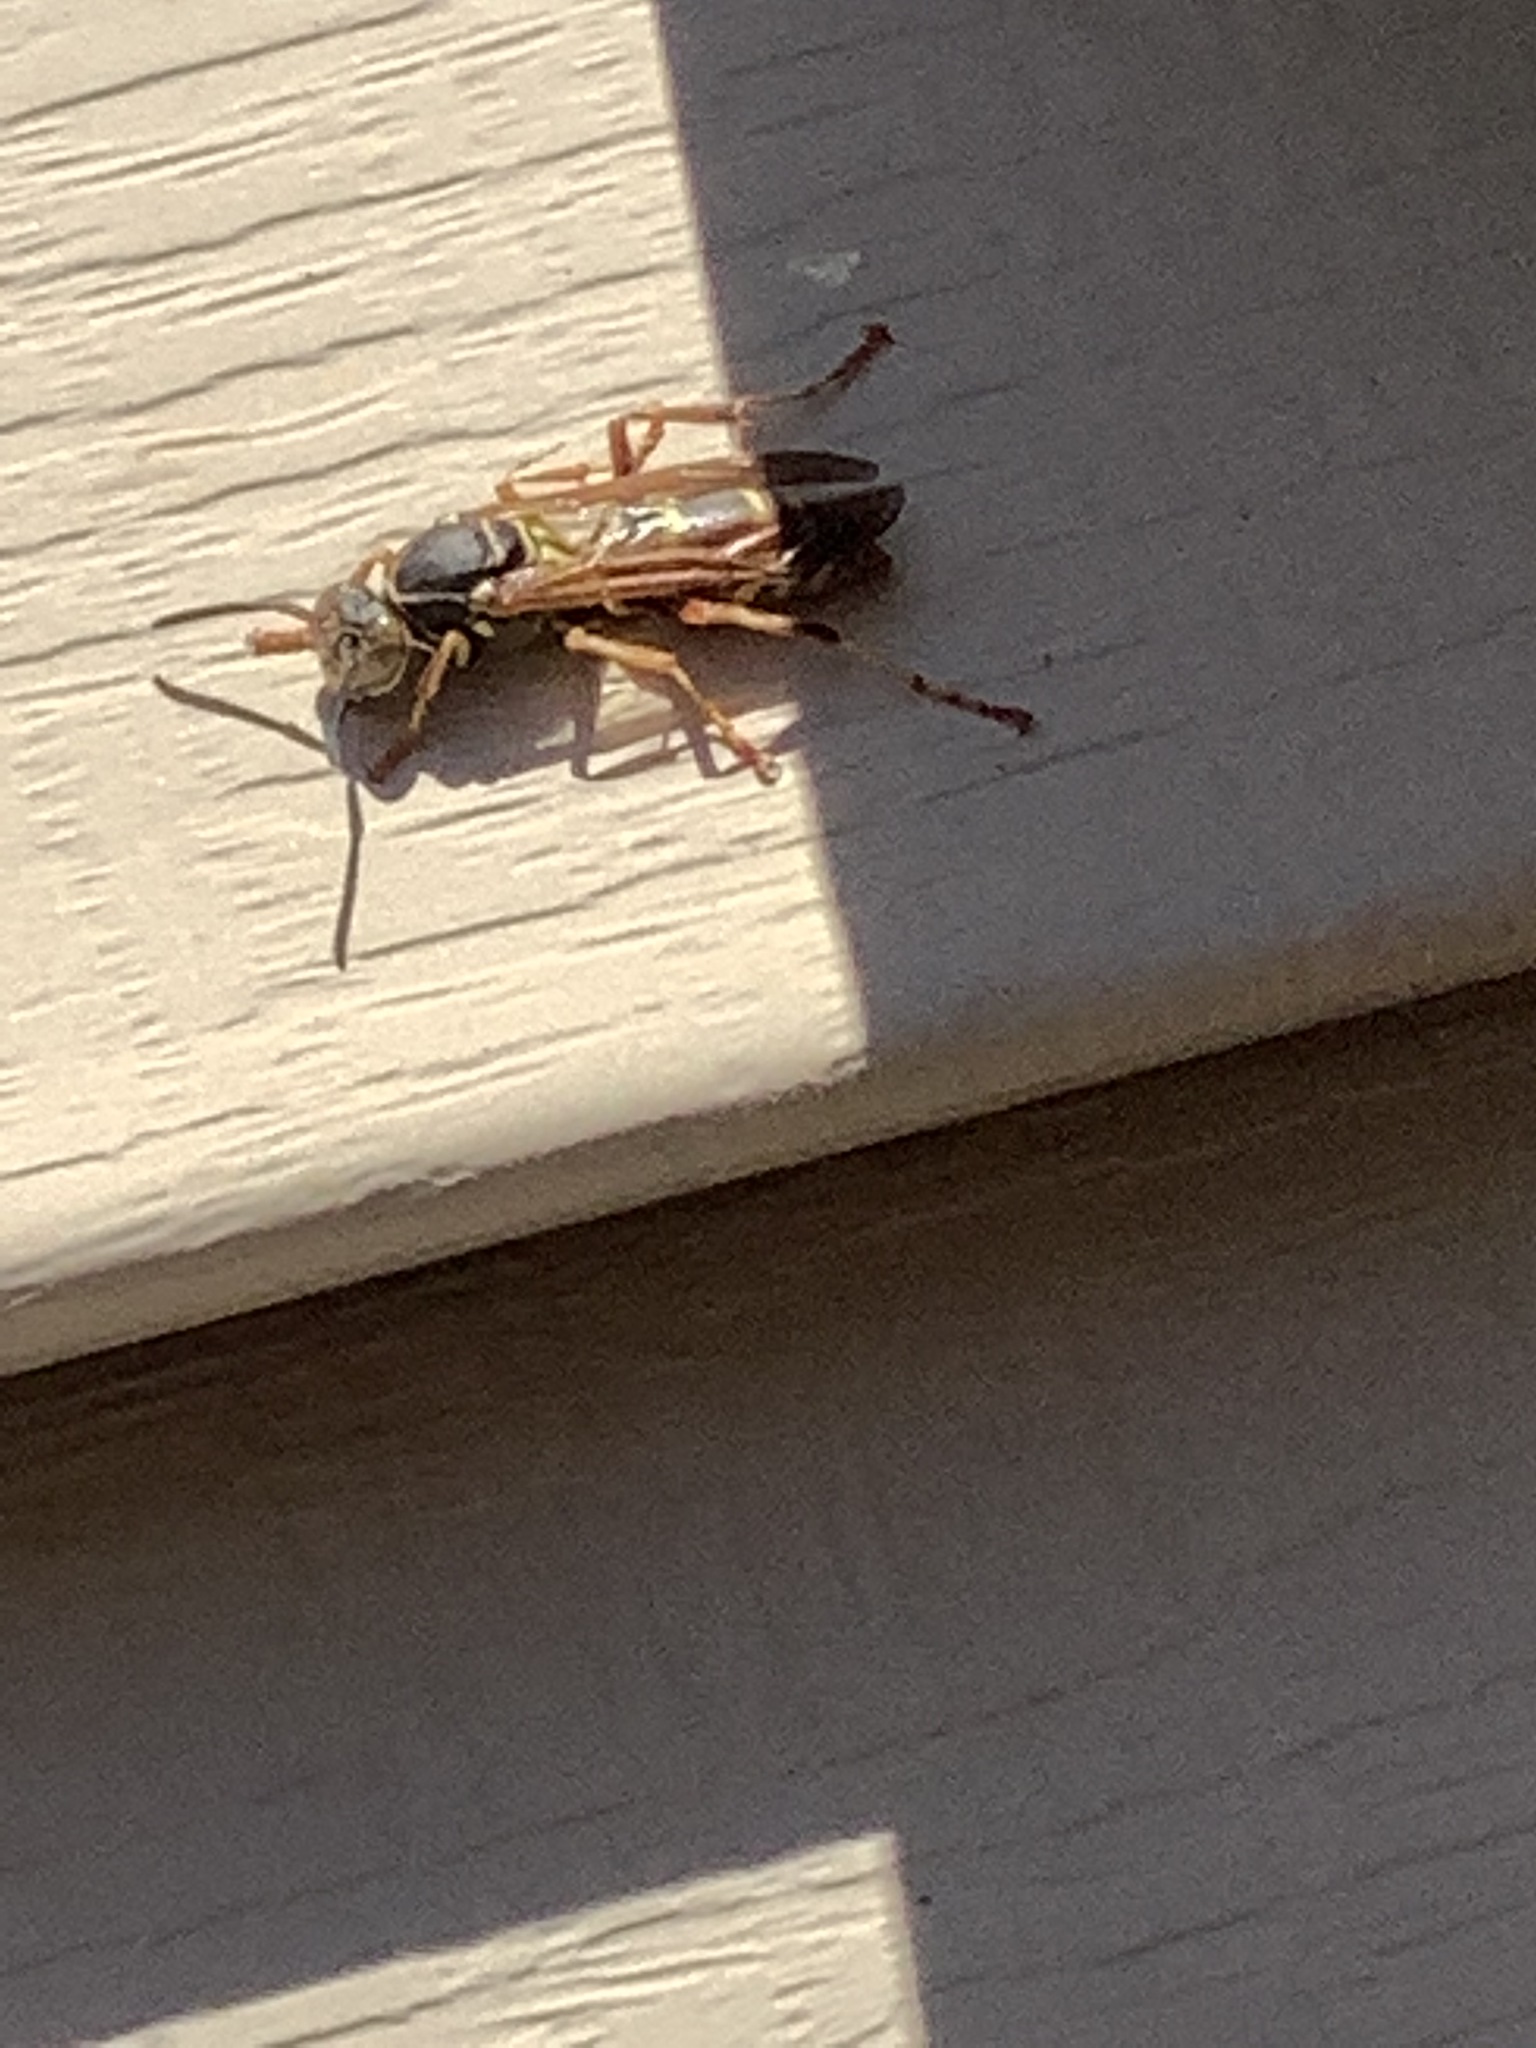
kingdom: Animalia
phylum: Arthropoda
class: Insecta
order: Hymenoptera
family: Eumenidae
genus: Polistes
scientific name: Polistes fuscatus
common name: Dark paper wasp
